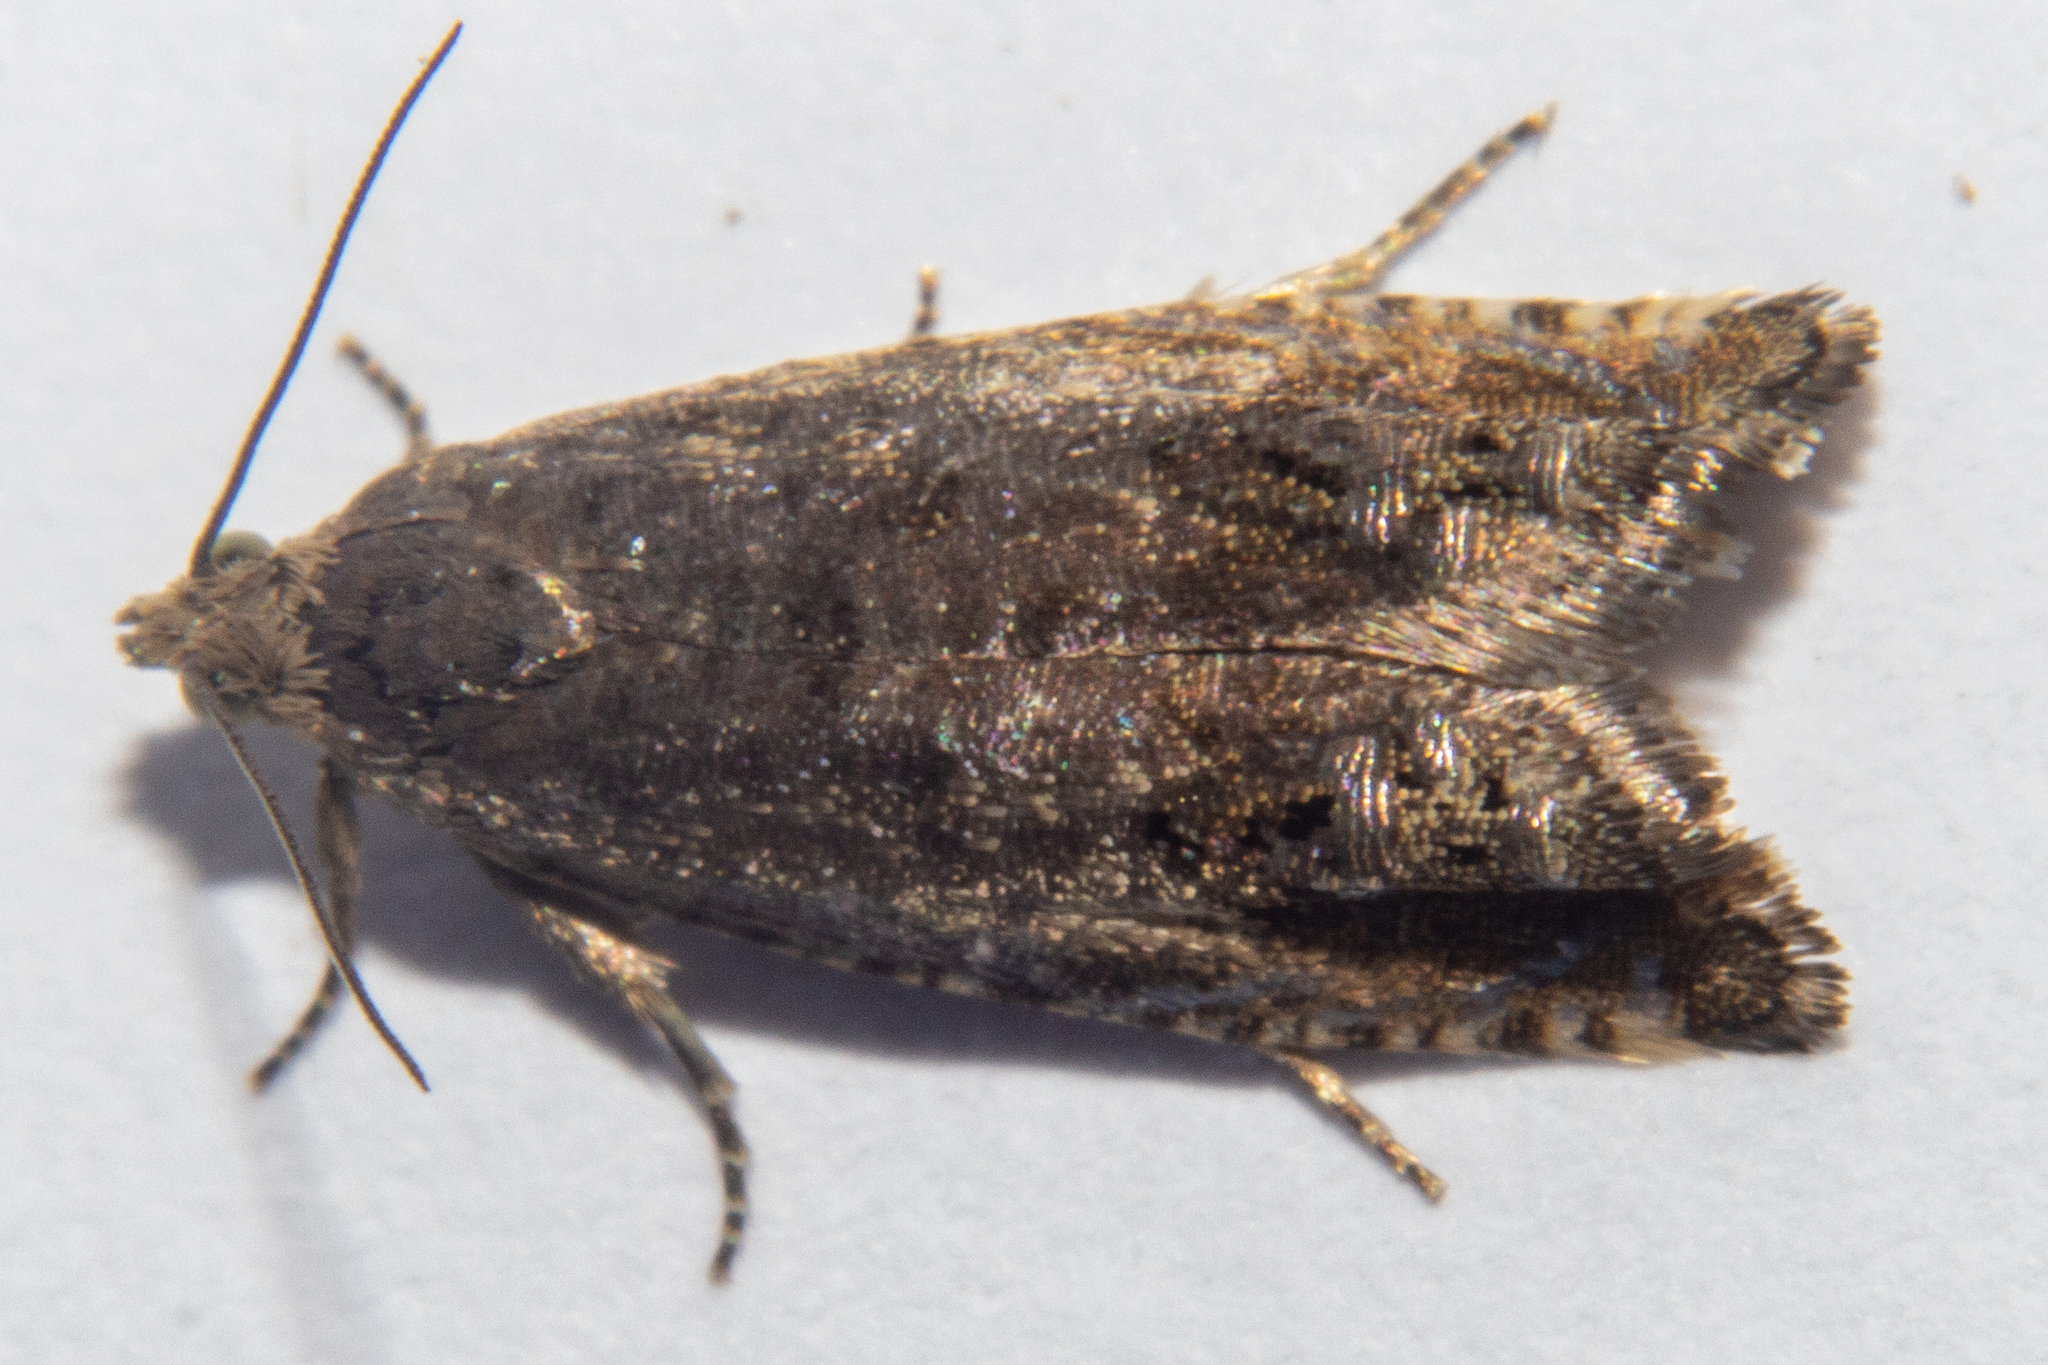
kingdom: Animalia
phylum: Arthropoda
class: Insecta
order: Lepidoptera
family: Tortricidae
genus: Cydia
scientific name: Cydia succedana
